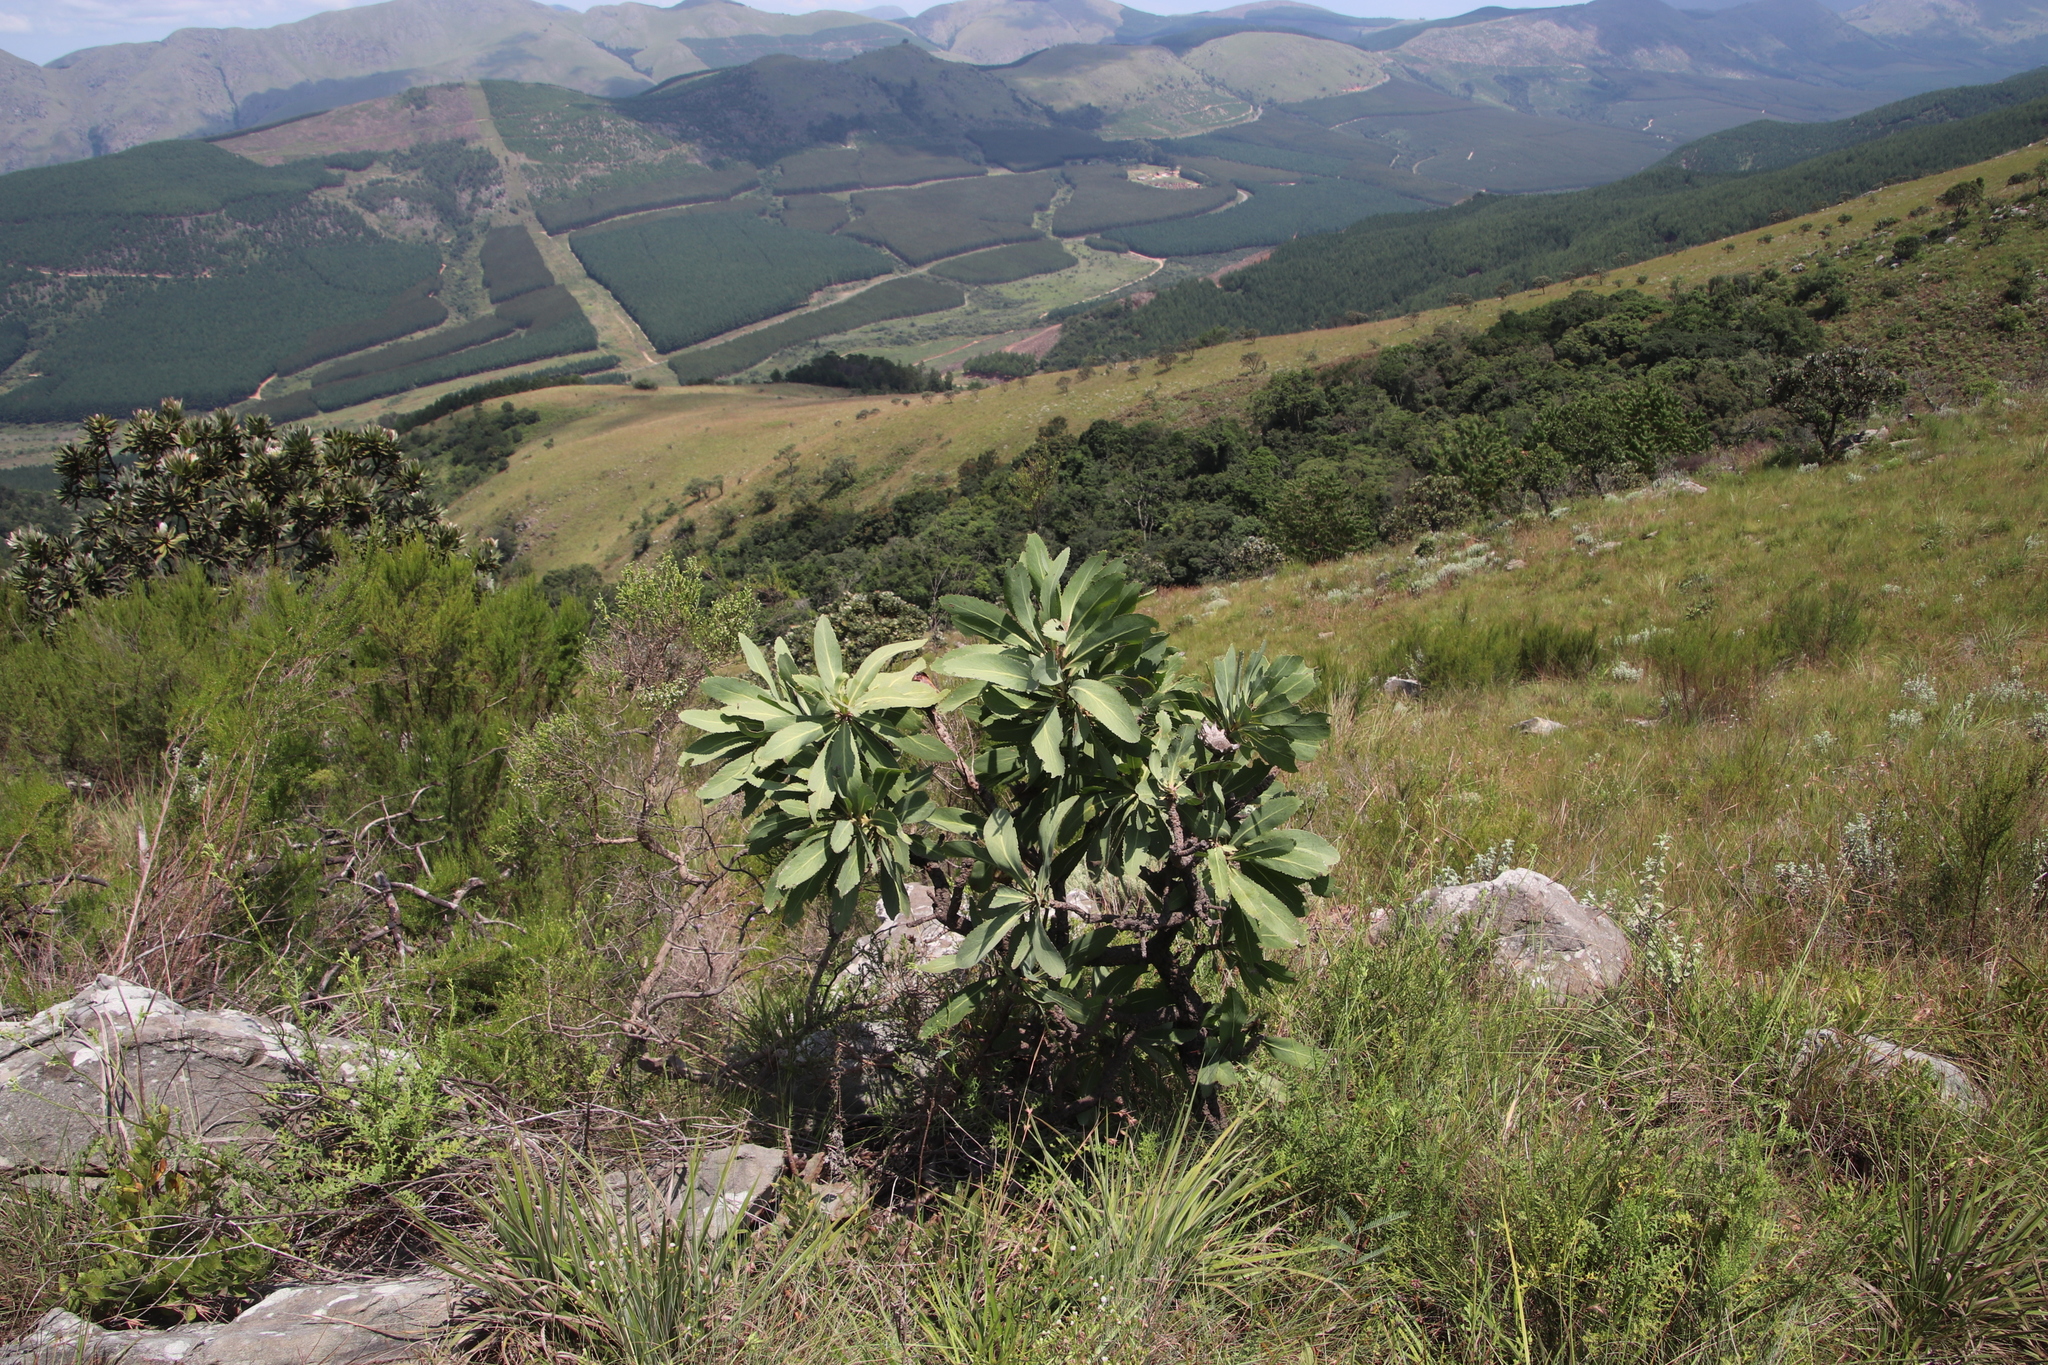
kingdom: Plantae
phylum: Tracheophyta
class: Magnoliopsida
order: Proteales
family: Proteaceae
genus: Protea
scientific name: Protea caffra
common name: Common sugarbush
